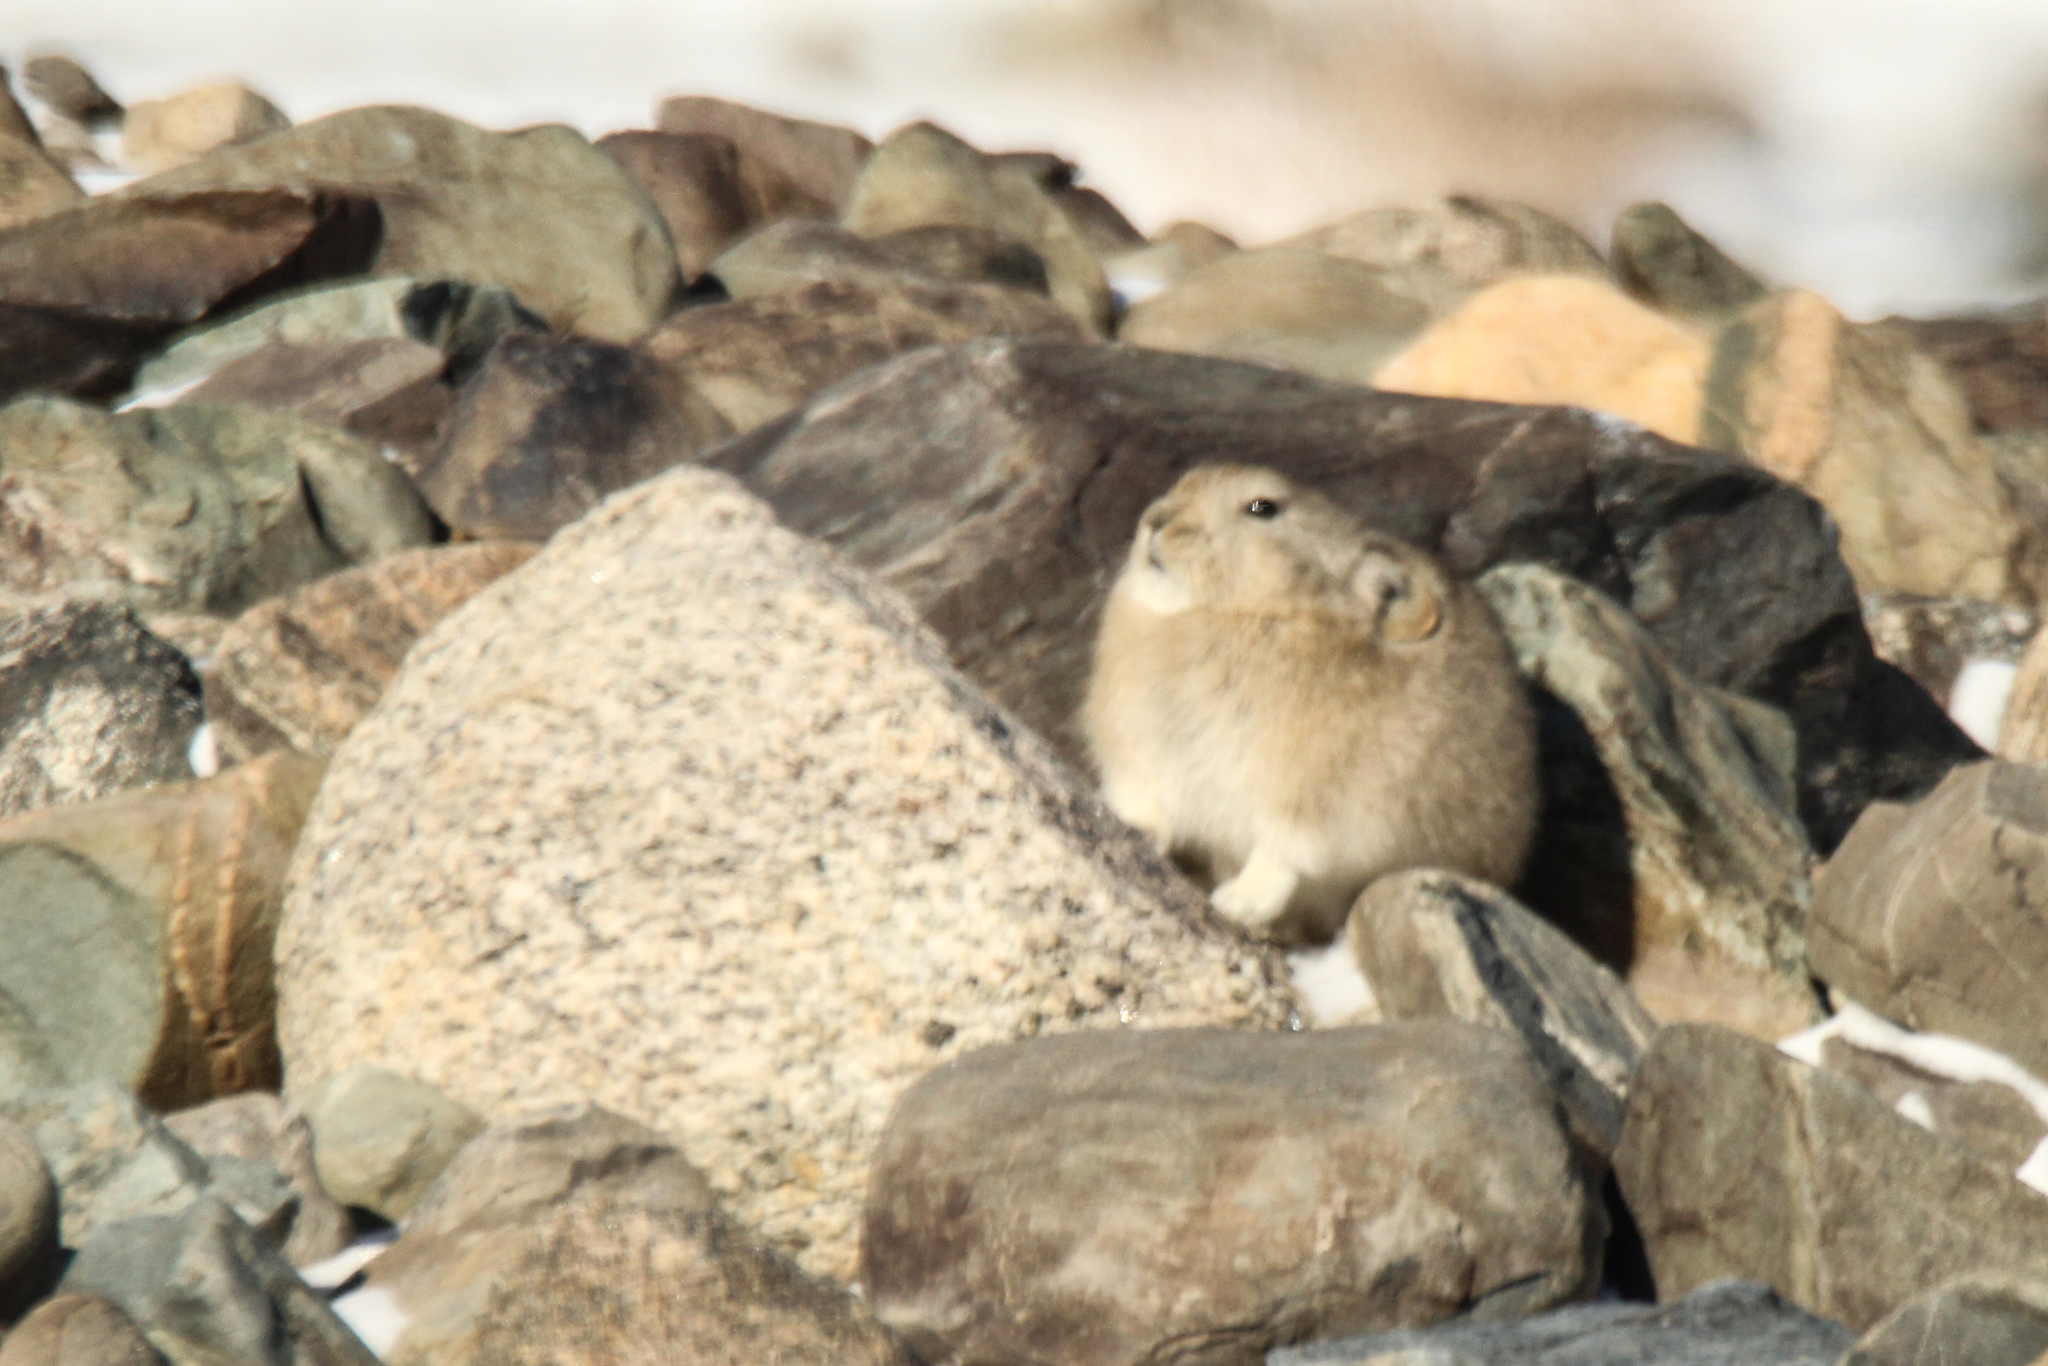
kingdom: Animalia
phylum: Chordata
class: Mammalia
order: Lagomorpha
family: Ochotonidae
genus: Ochotona
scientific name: Ochotona pallasi
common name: Mongolian pika
